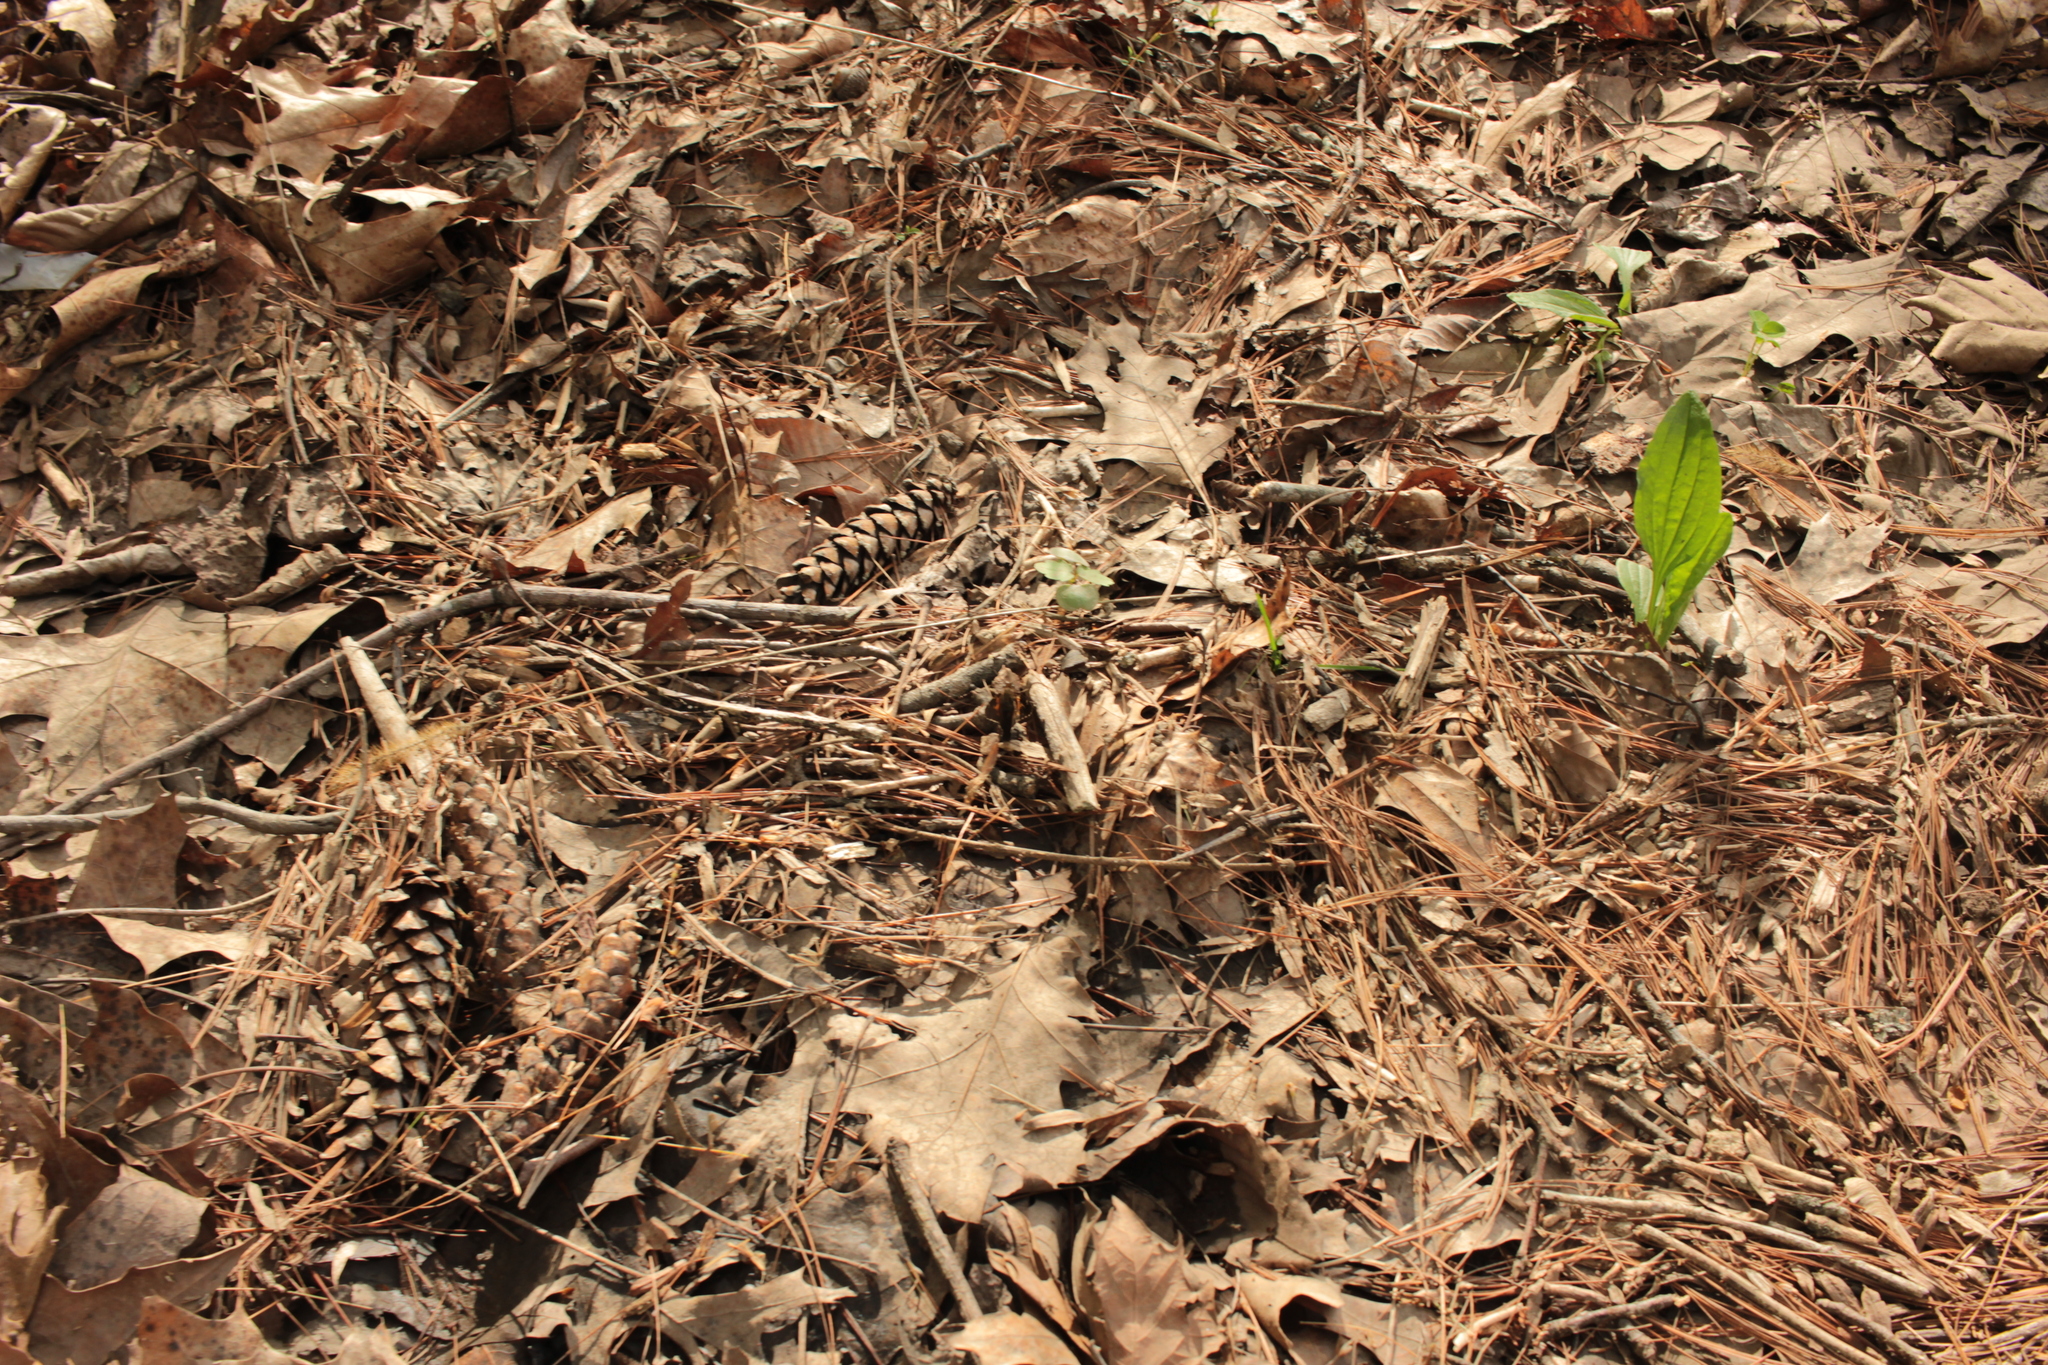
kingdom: Animalia
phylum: Arthropoda
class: Insecta
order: Lepidoptera
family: Hesperiidae
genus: Epargyreus
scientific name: Epargyreus clarus
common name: Silver-spotted skipper
